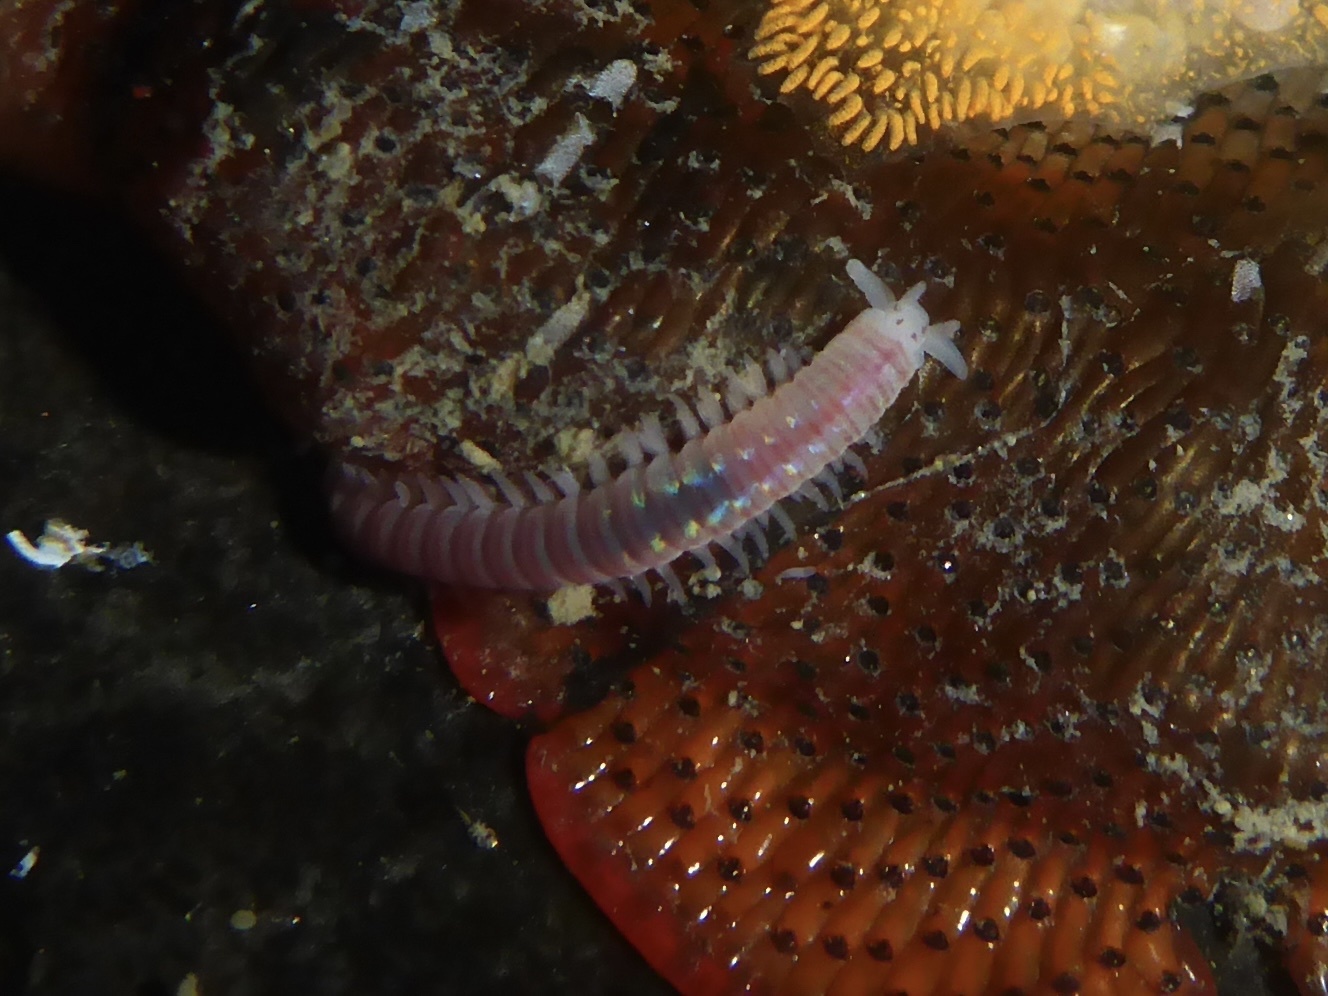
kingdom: Animalia
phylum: Annelida
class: Polychaeta
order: Eunicida
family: Dorvilleidae
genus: Dorvillea
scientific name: Dorvillea moniloceras
